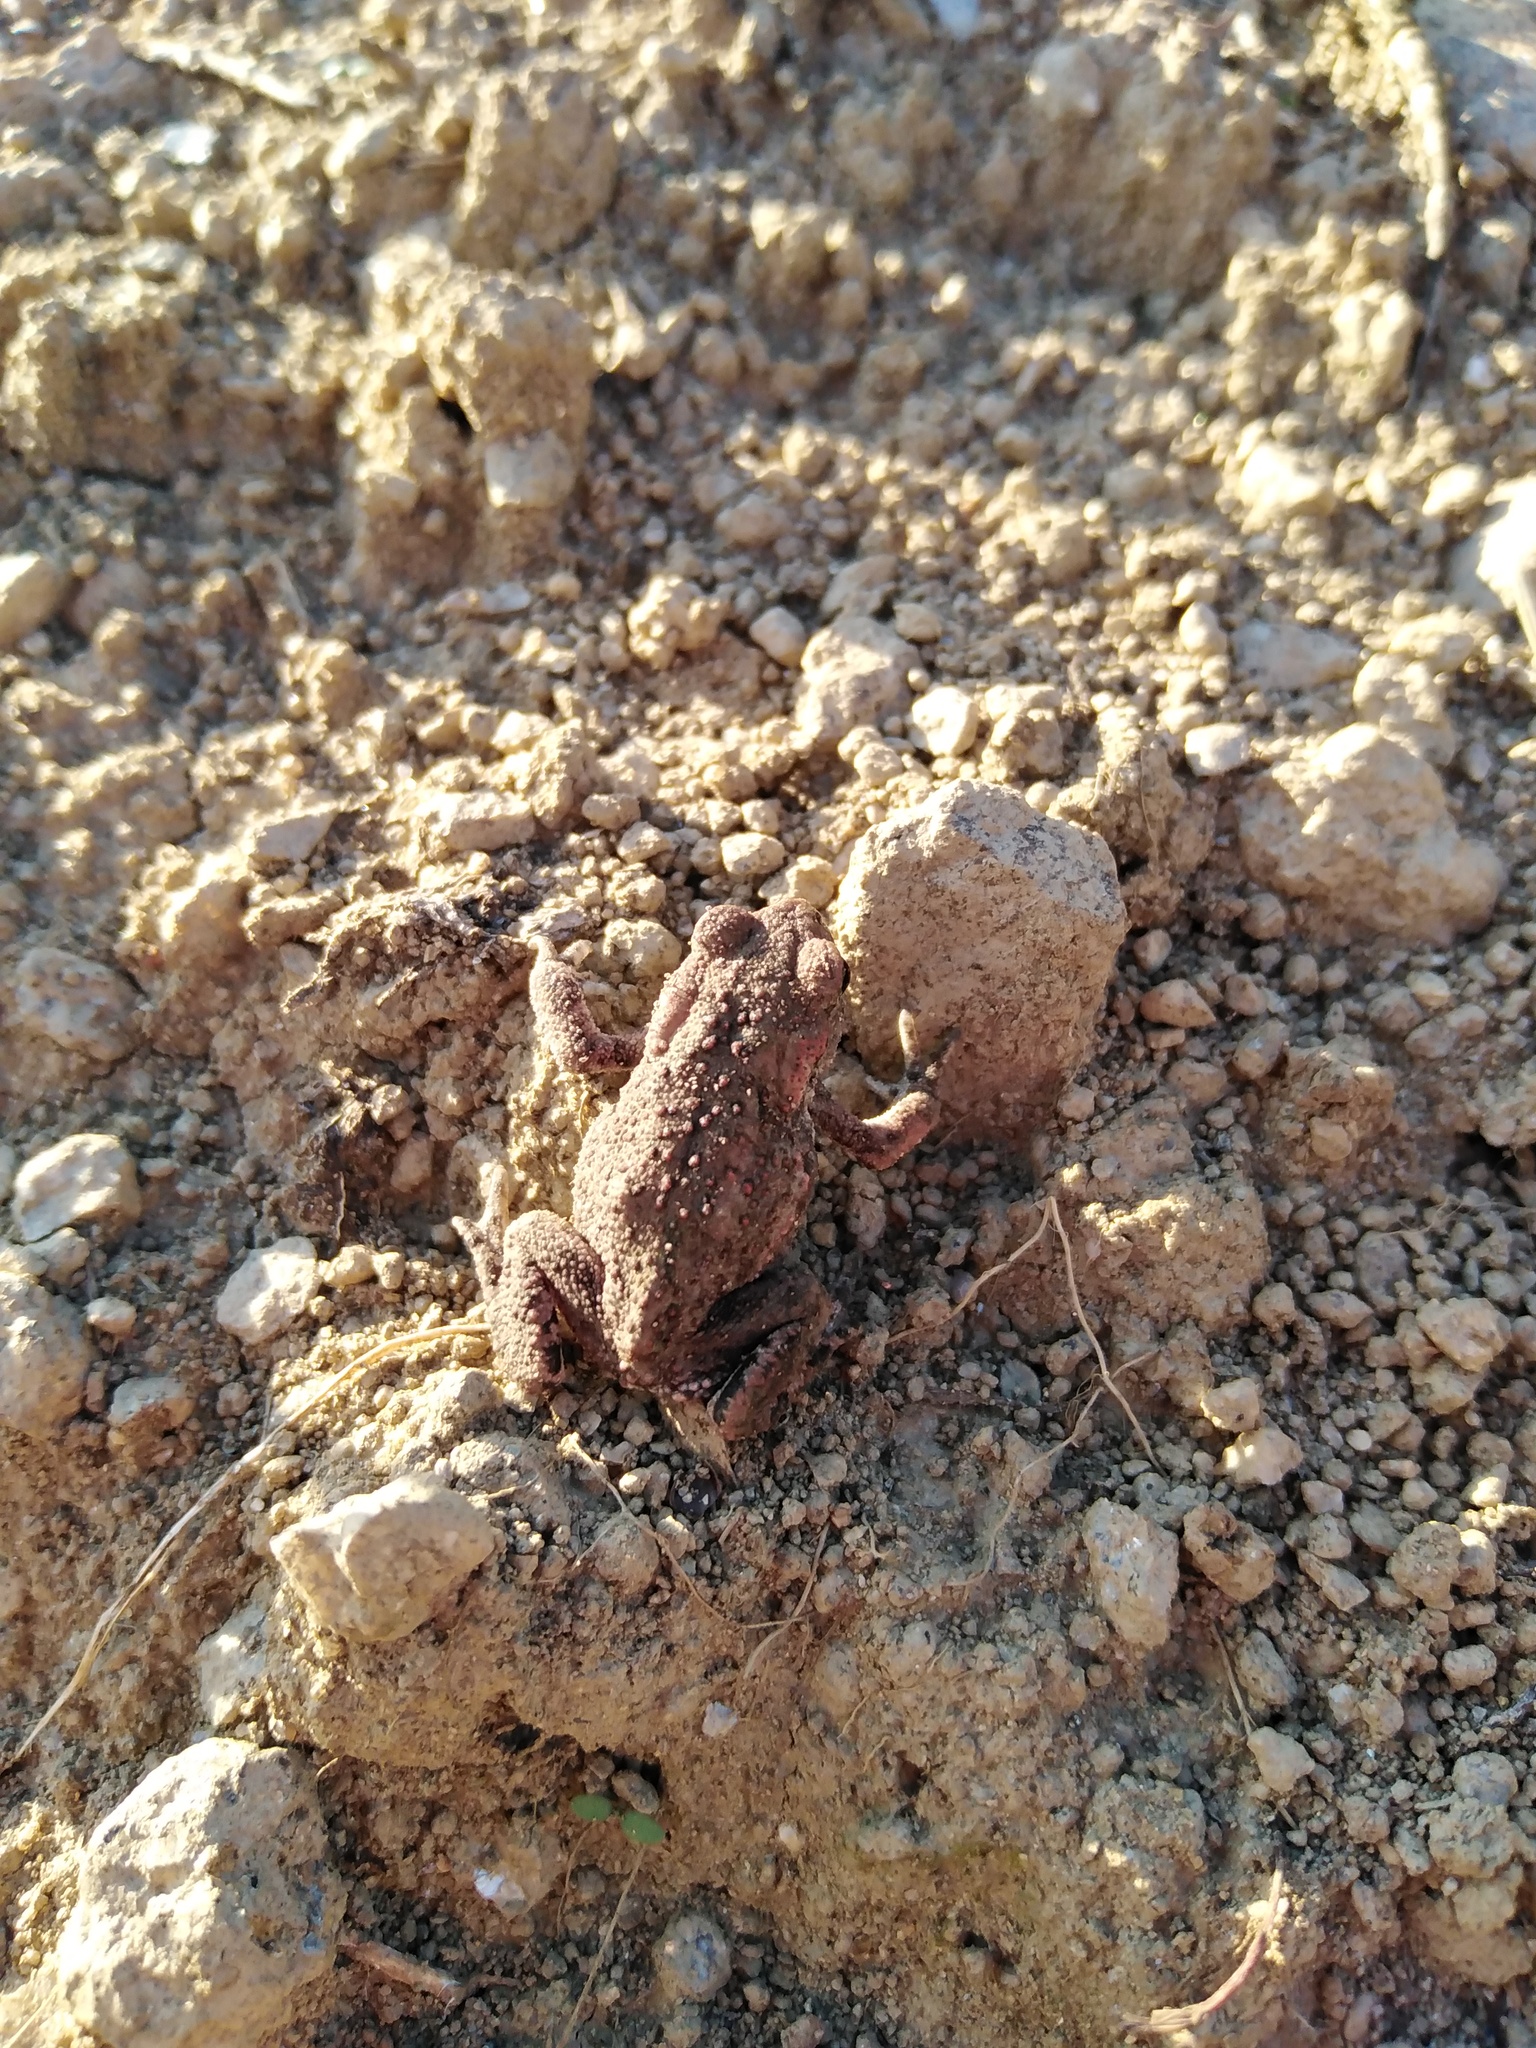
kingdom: Animalia
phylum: Chordata
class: Amphibia
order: Anura
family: Bufonidae
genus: Bufo
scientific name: Bufo bufo
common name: Common toad
